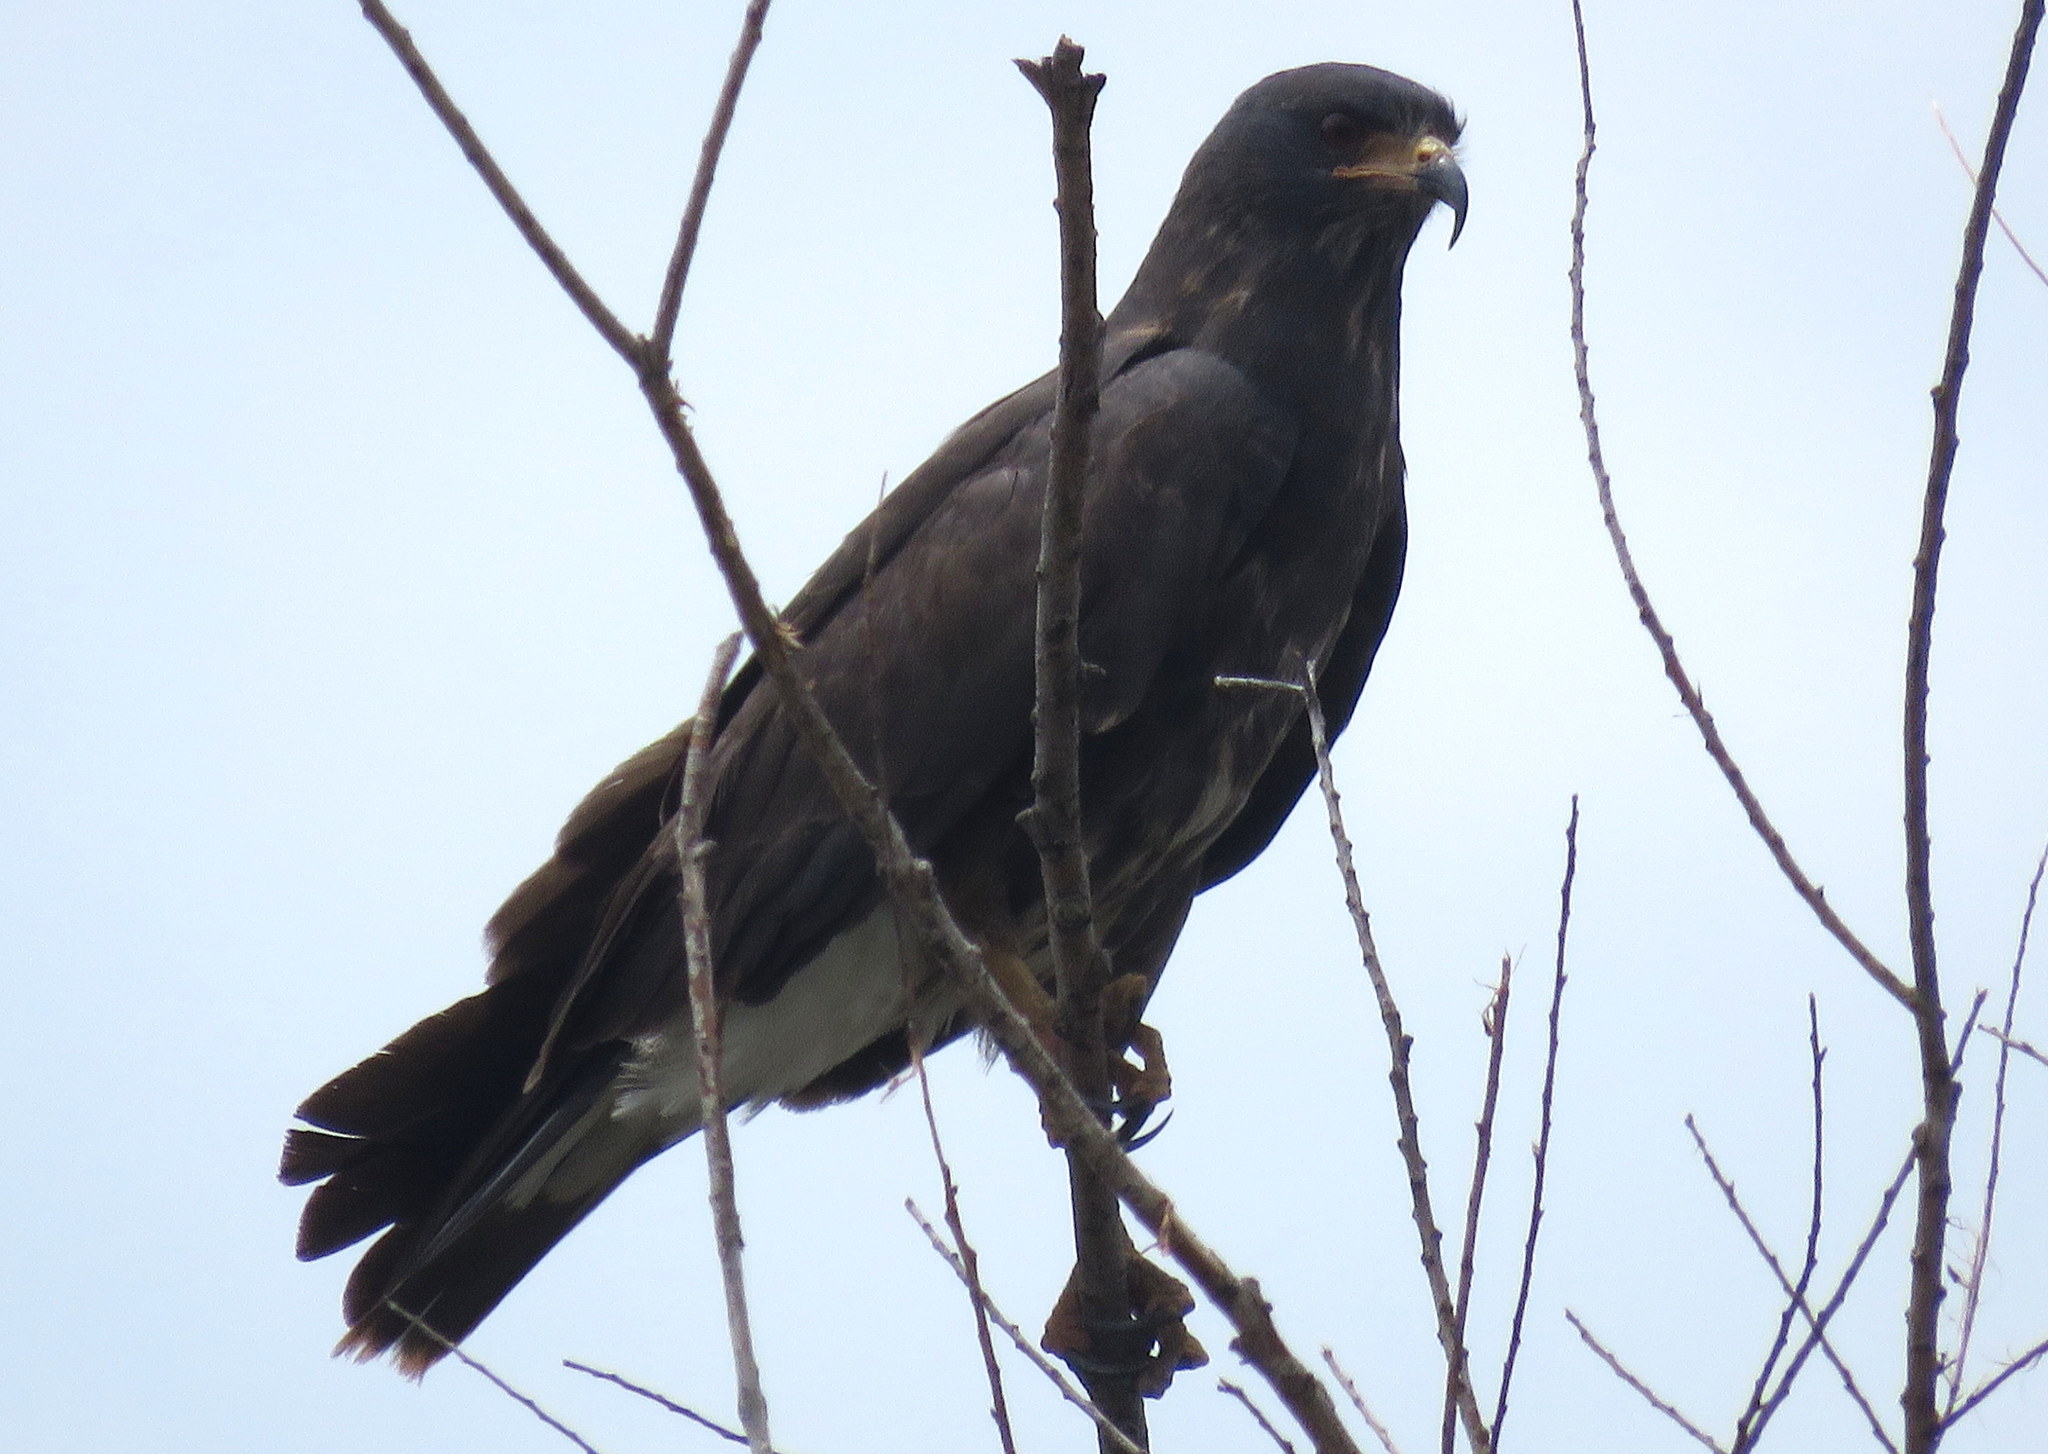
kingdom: Animalia
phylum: Chordata
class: Aves
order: Accipitriformes
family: Accipitridae
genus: Rostrhamus
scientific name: Rostrhamus sociabilis
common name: Snail kite
